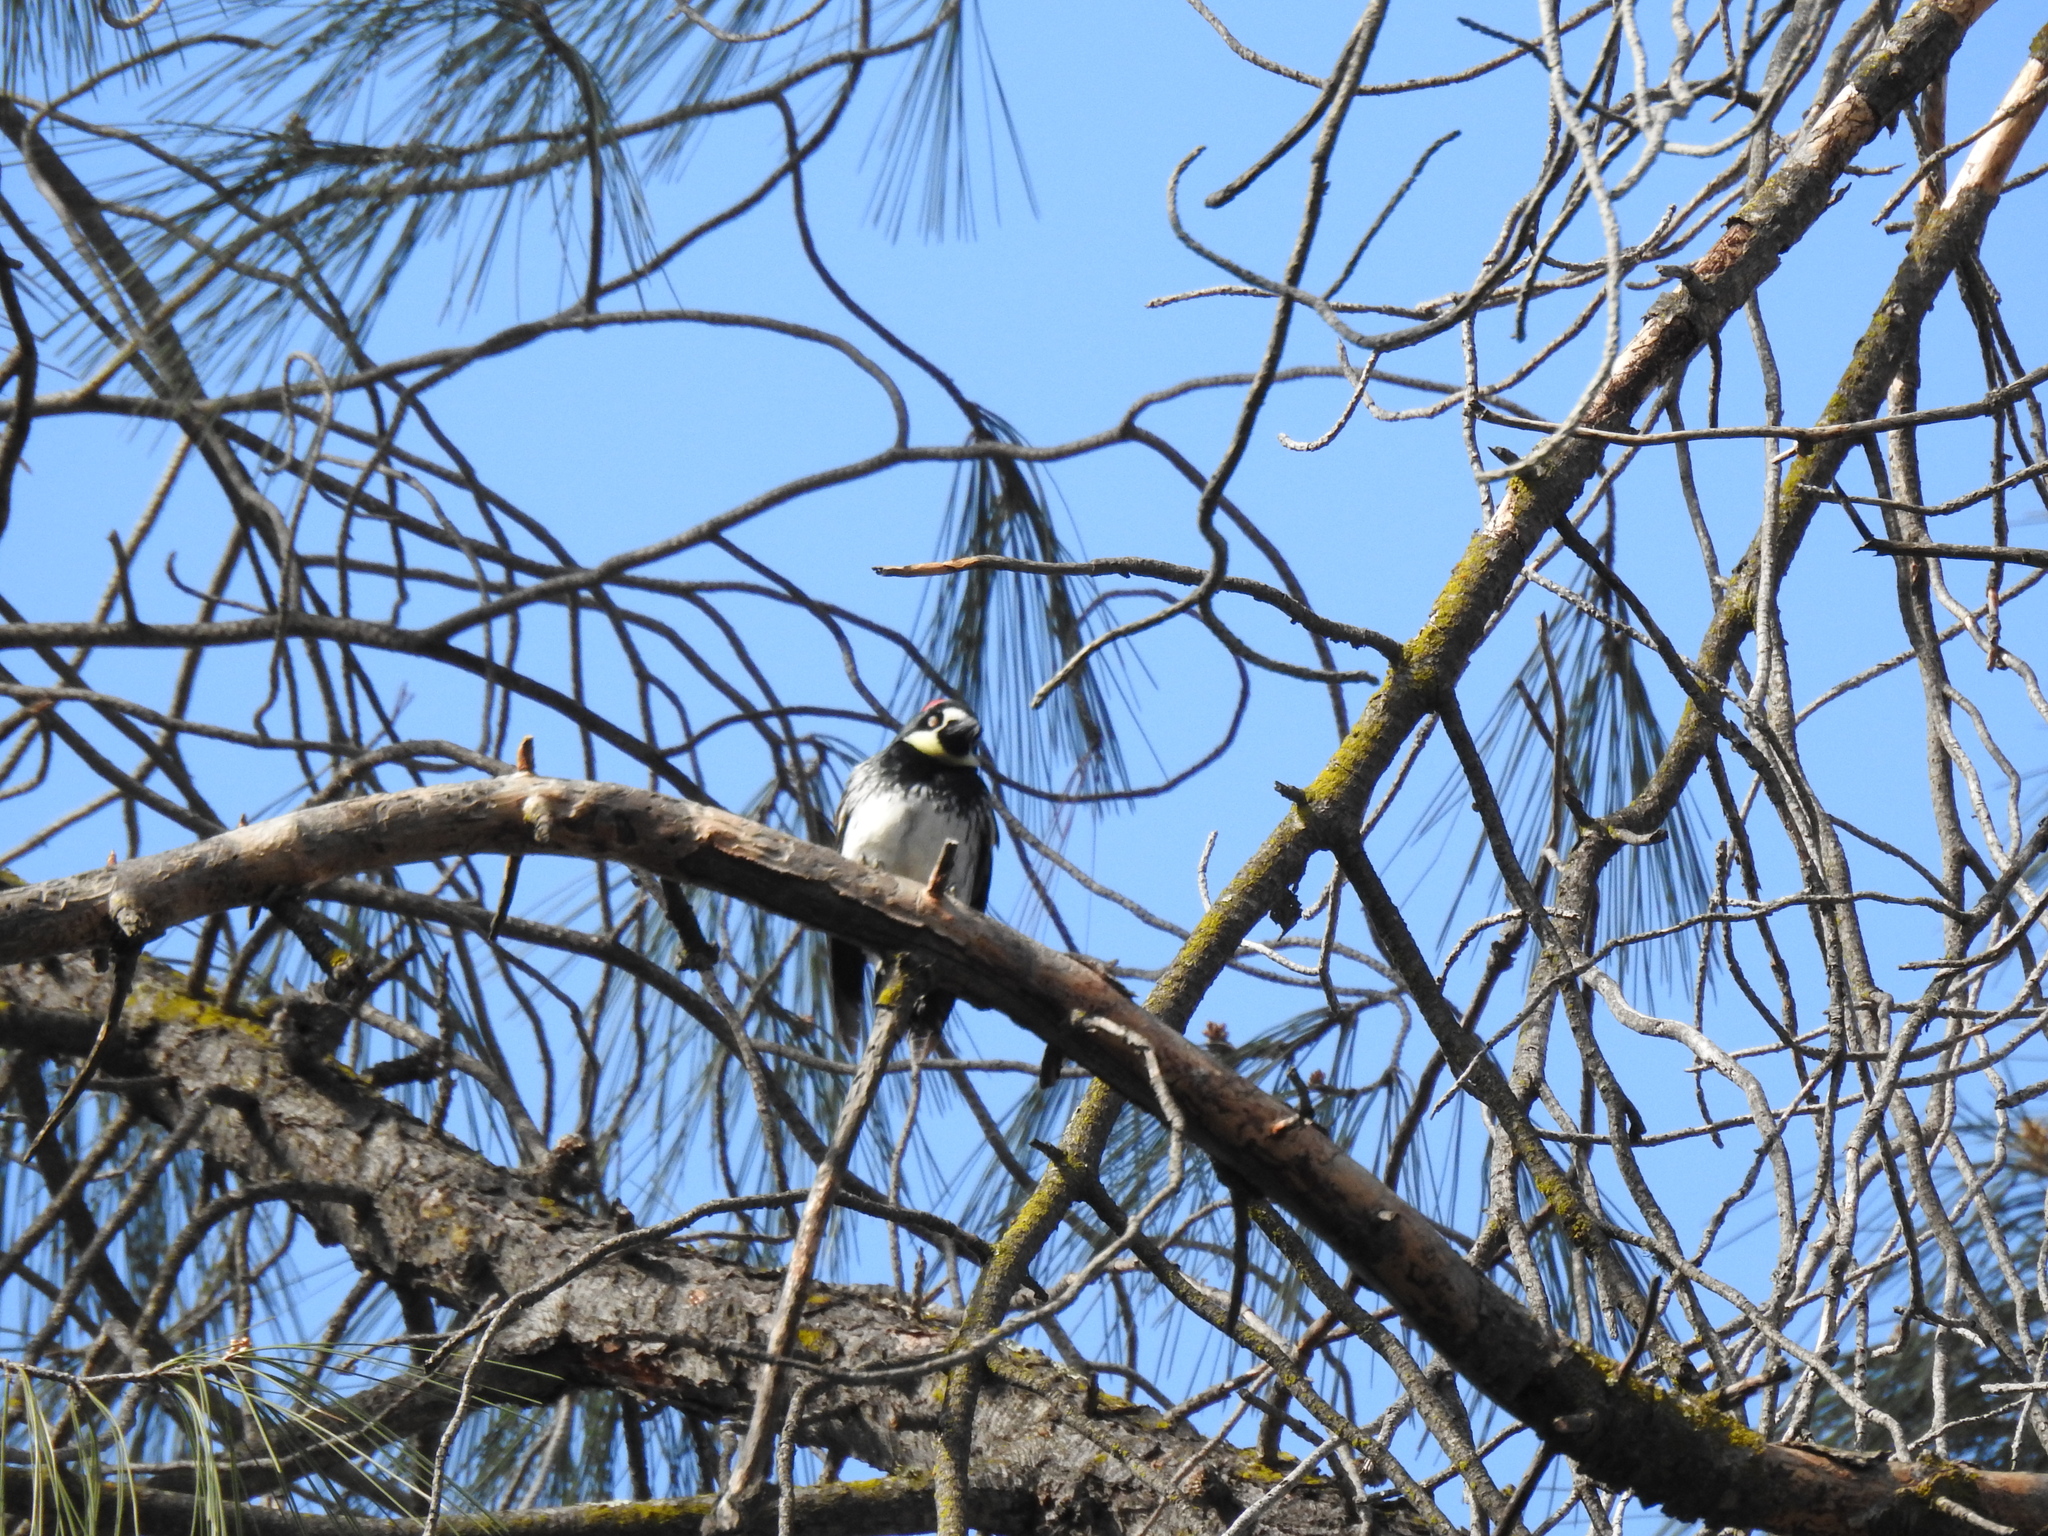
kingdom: Animalia
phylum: Chordata
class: Aves
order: Piciformes
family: Picidae
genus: Melanerpes
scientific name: Melanerpes formicivorus
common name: Acorn woodpecker
